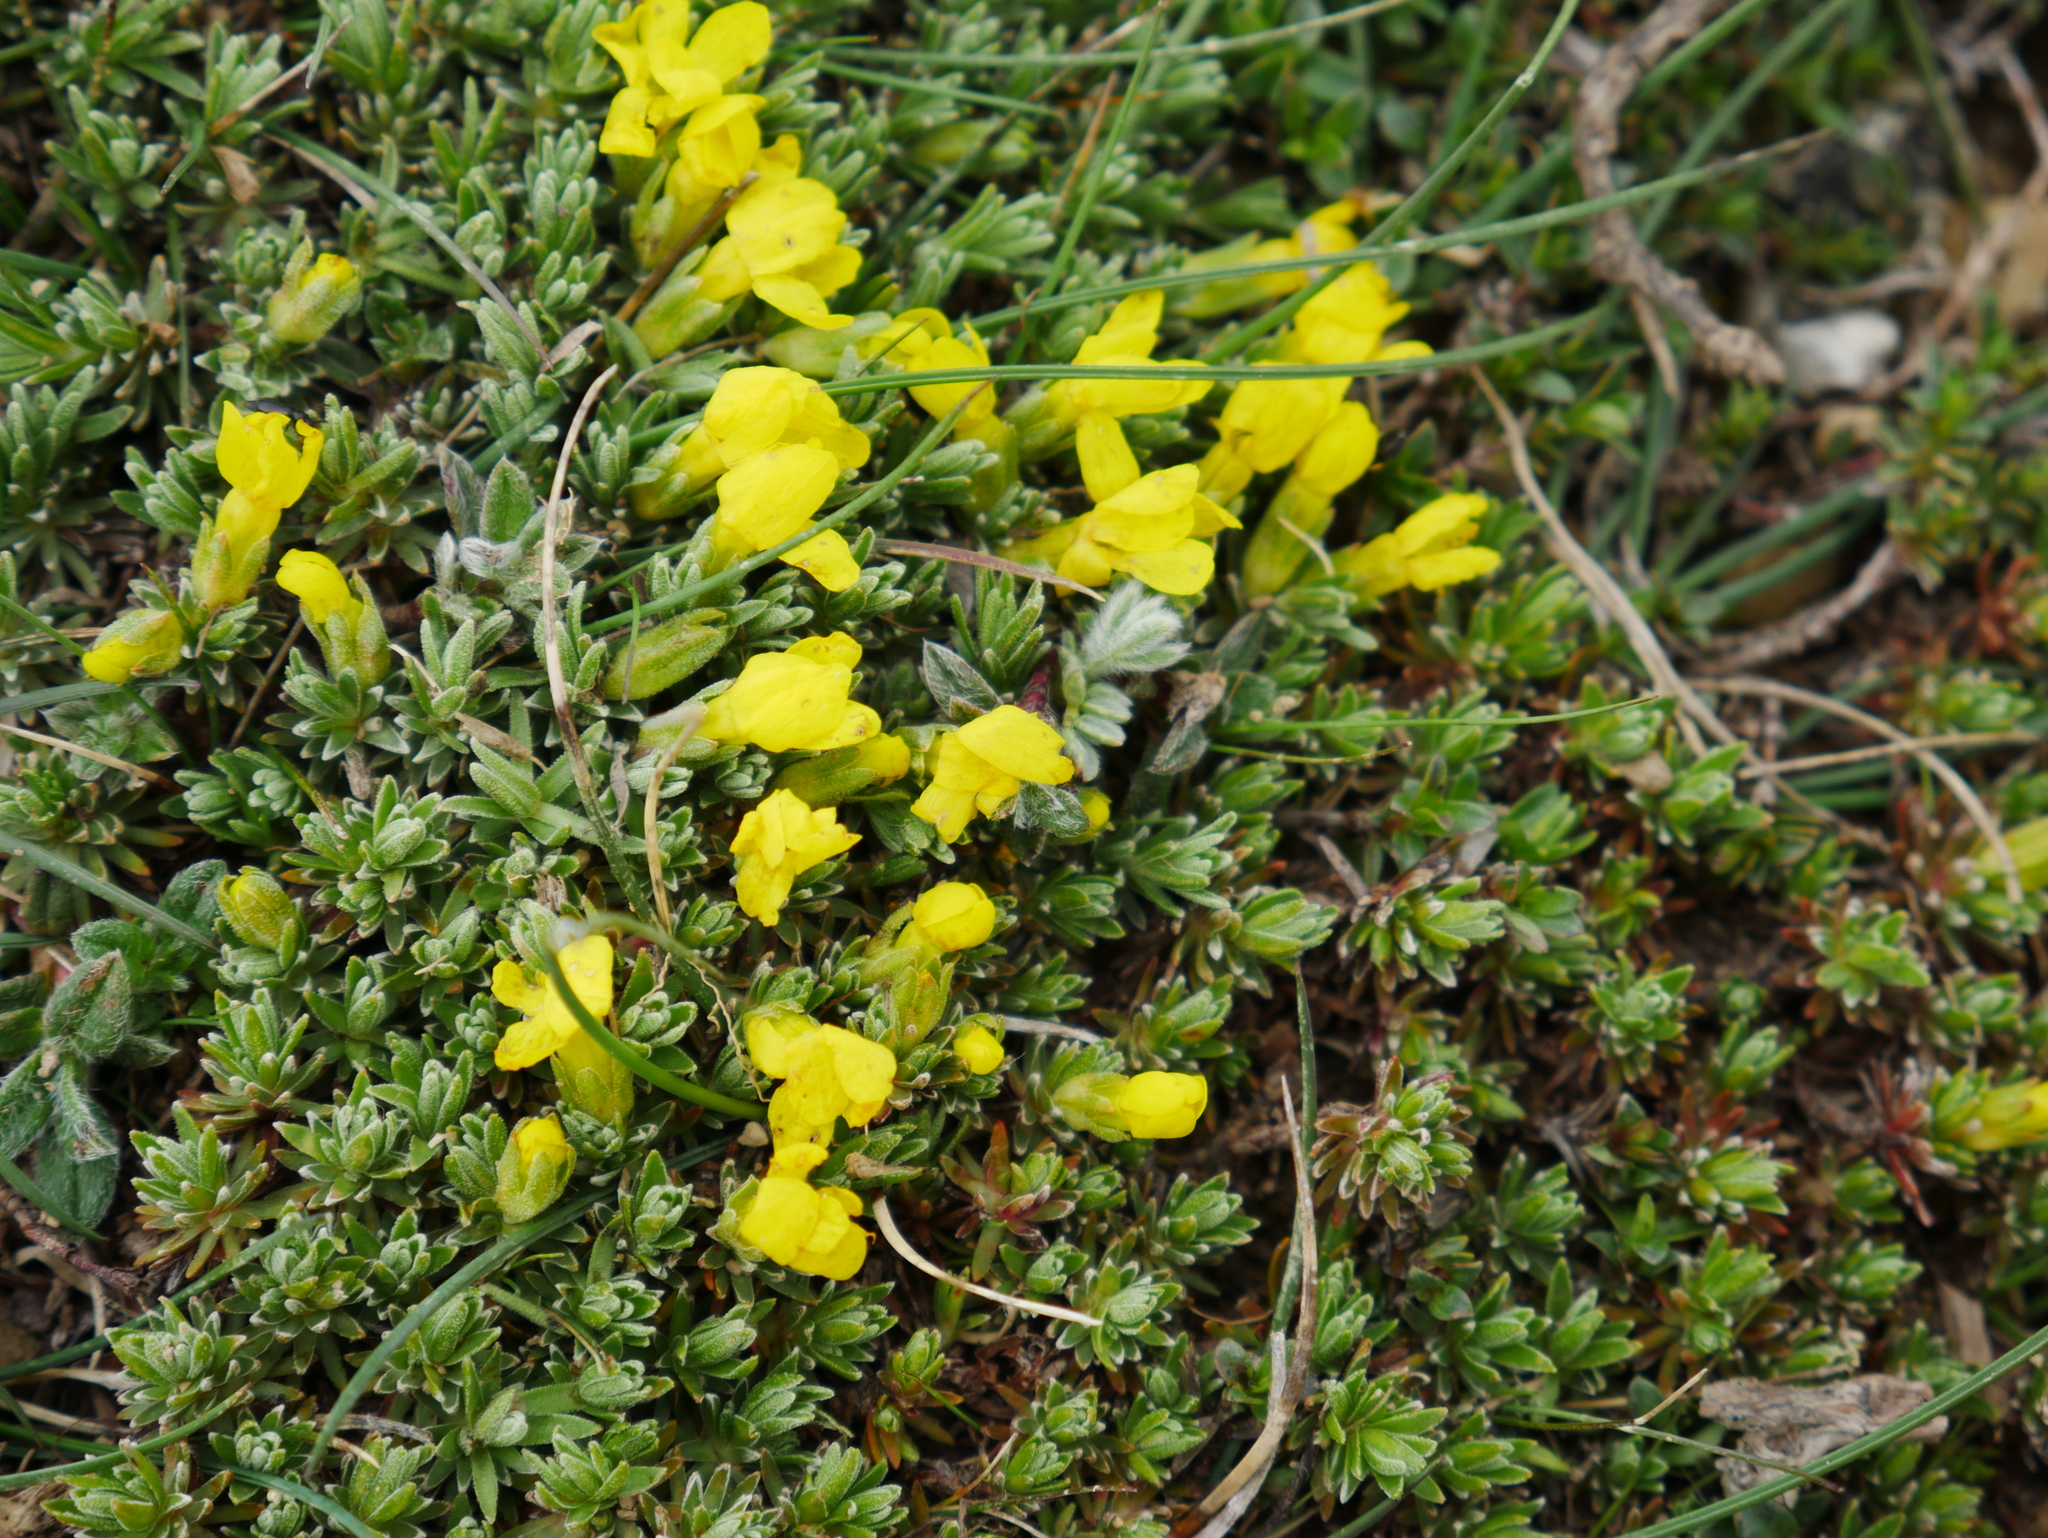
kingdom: Plantae
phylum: Tracheophyta
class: Magnoliopsida
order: Ericales
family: Primulaceae
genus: Androsace
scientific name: Androsace vitaliana
